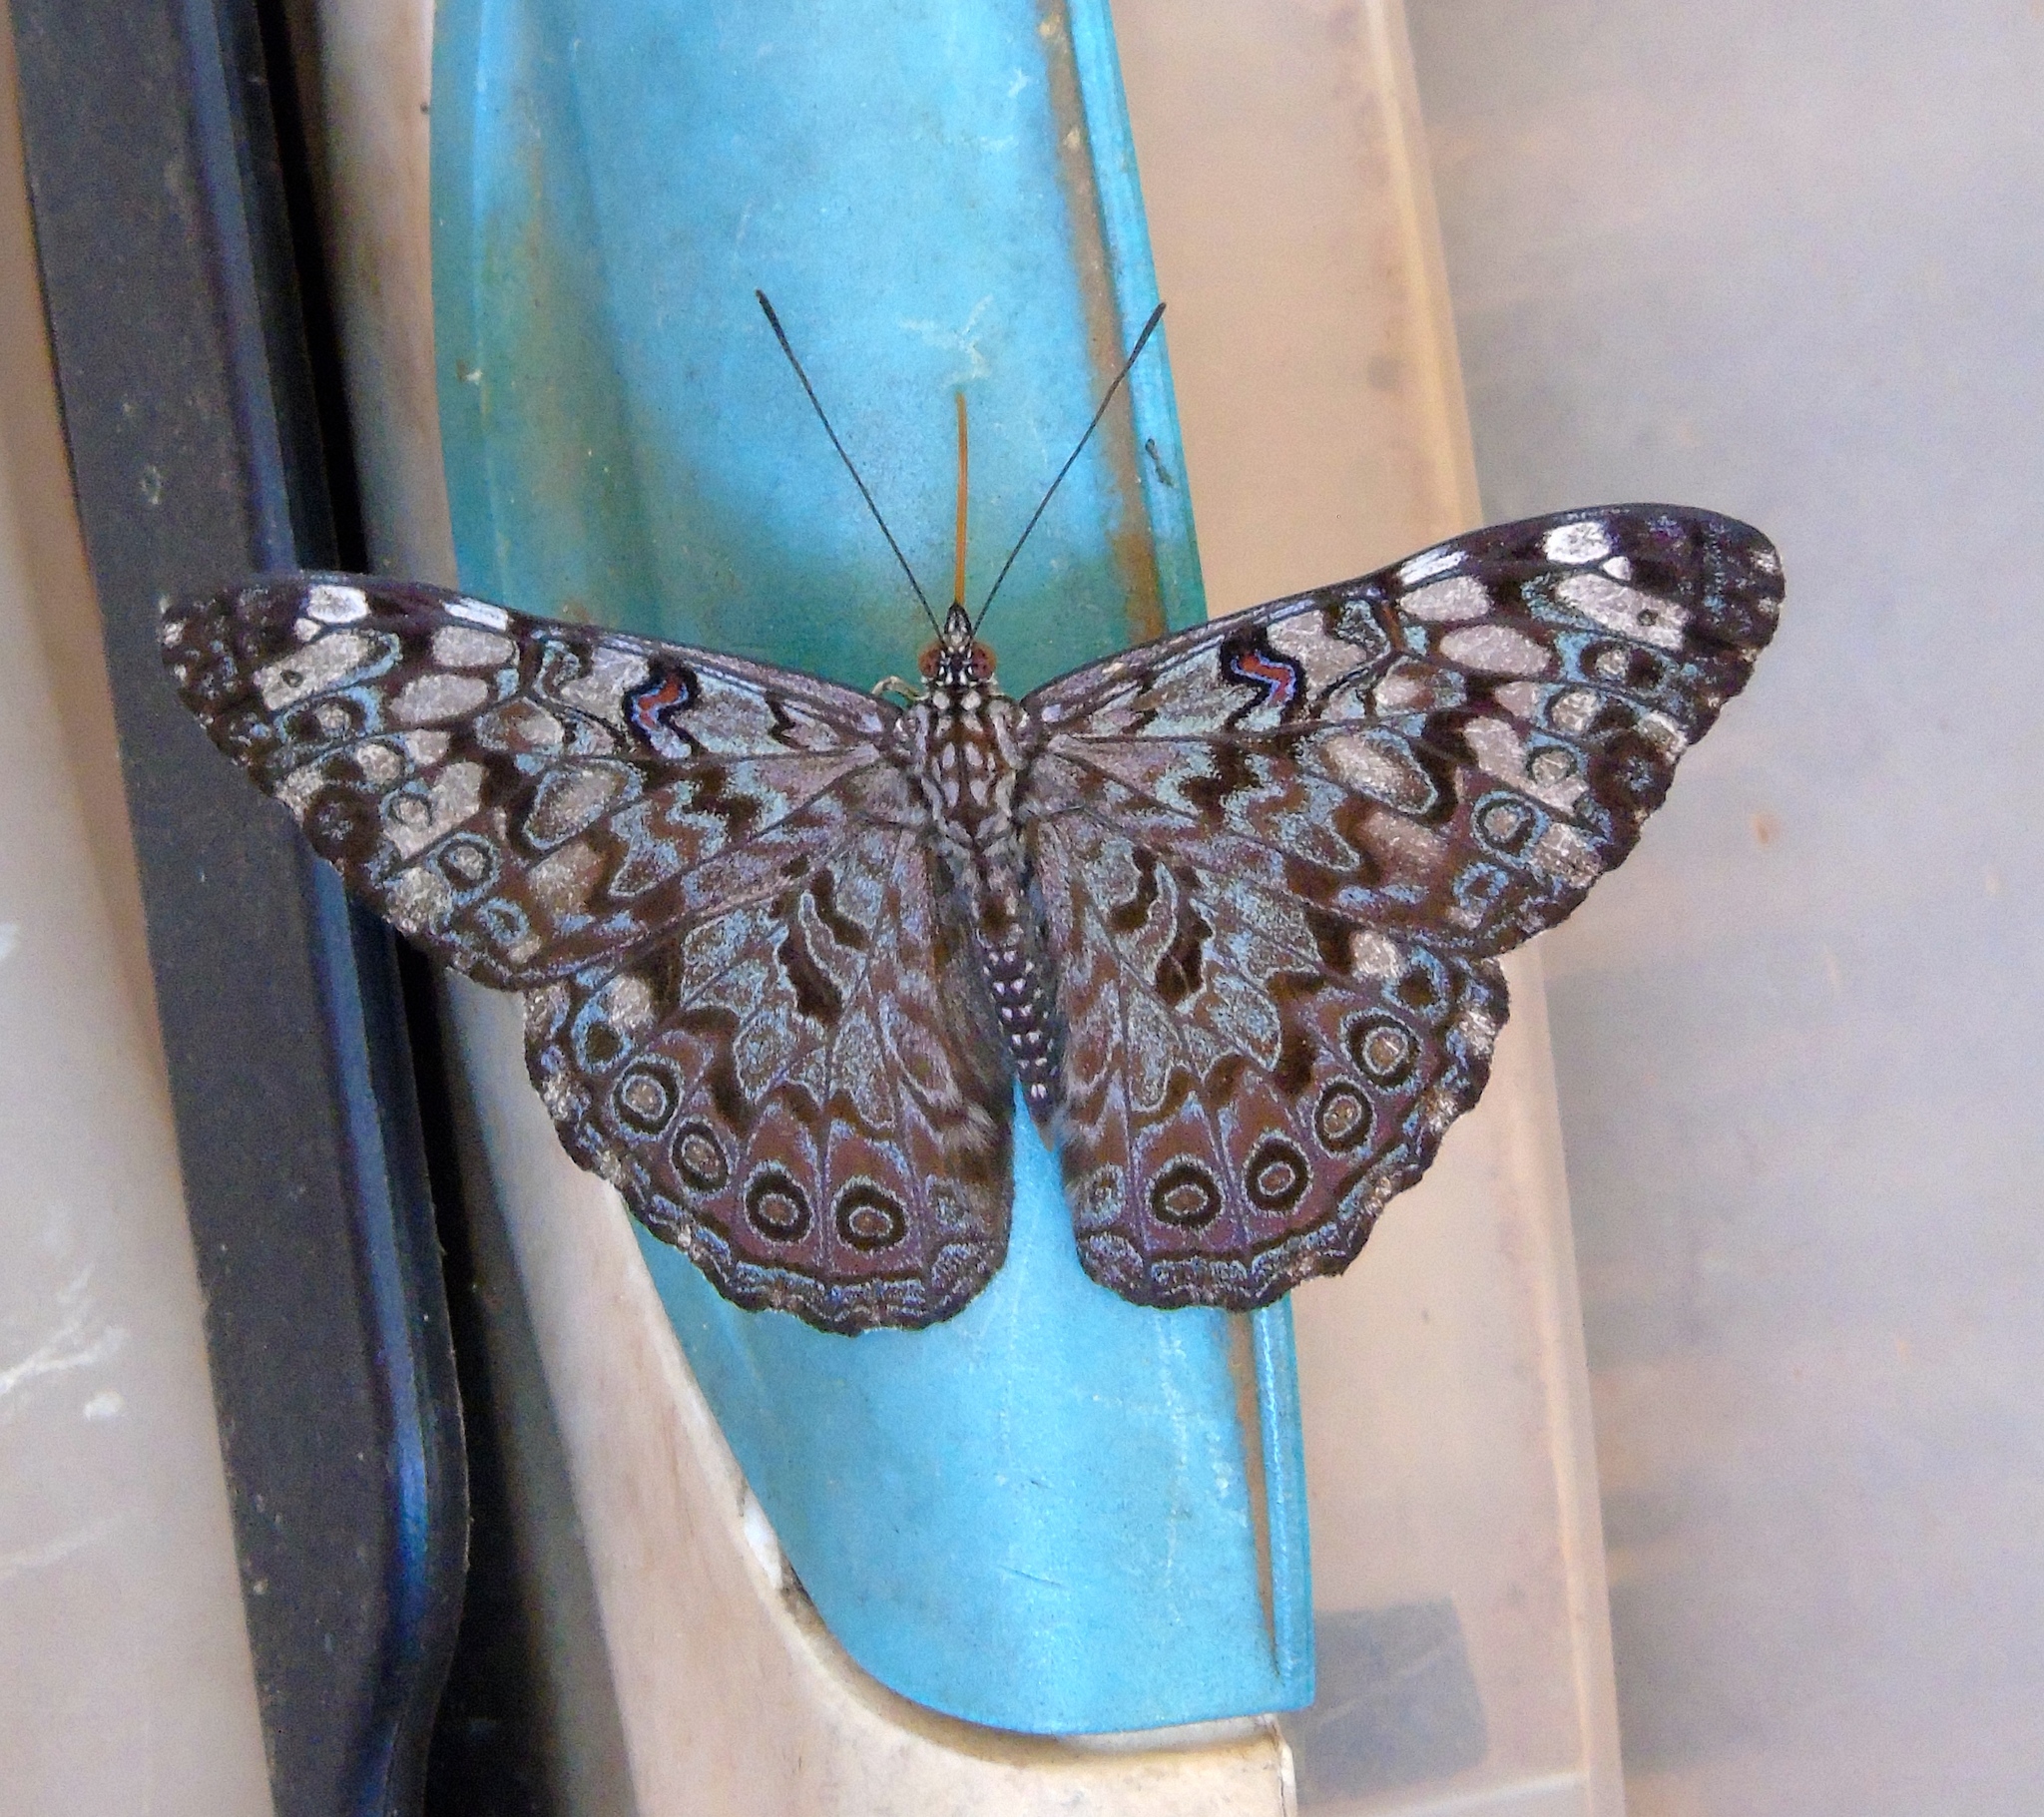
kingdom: Animalia
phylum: Arthropoda
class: Insecta
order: Lepidoptera
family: Nymphalidae
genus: Hamadryas
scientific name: Hamadryas guatemalena
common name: Guatemalan cracker
